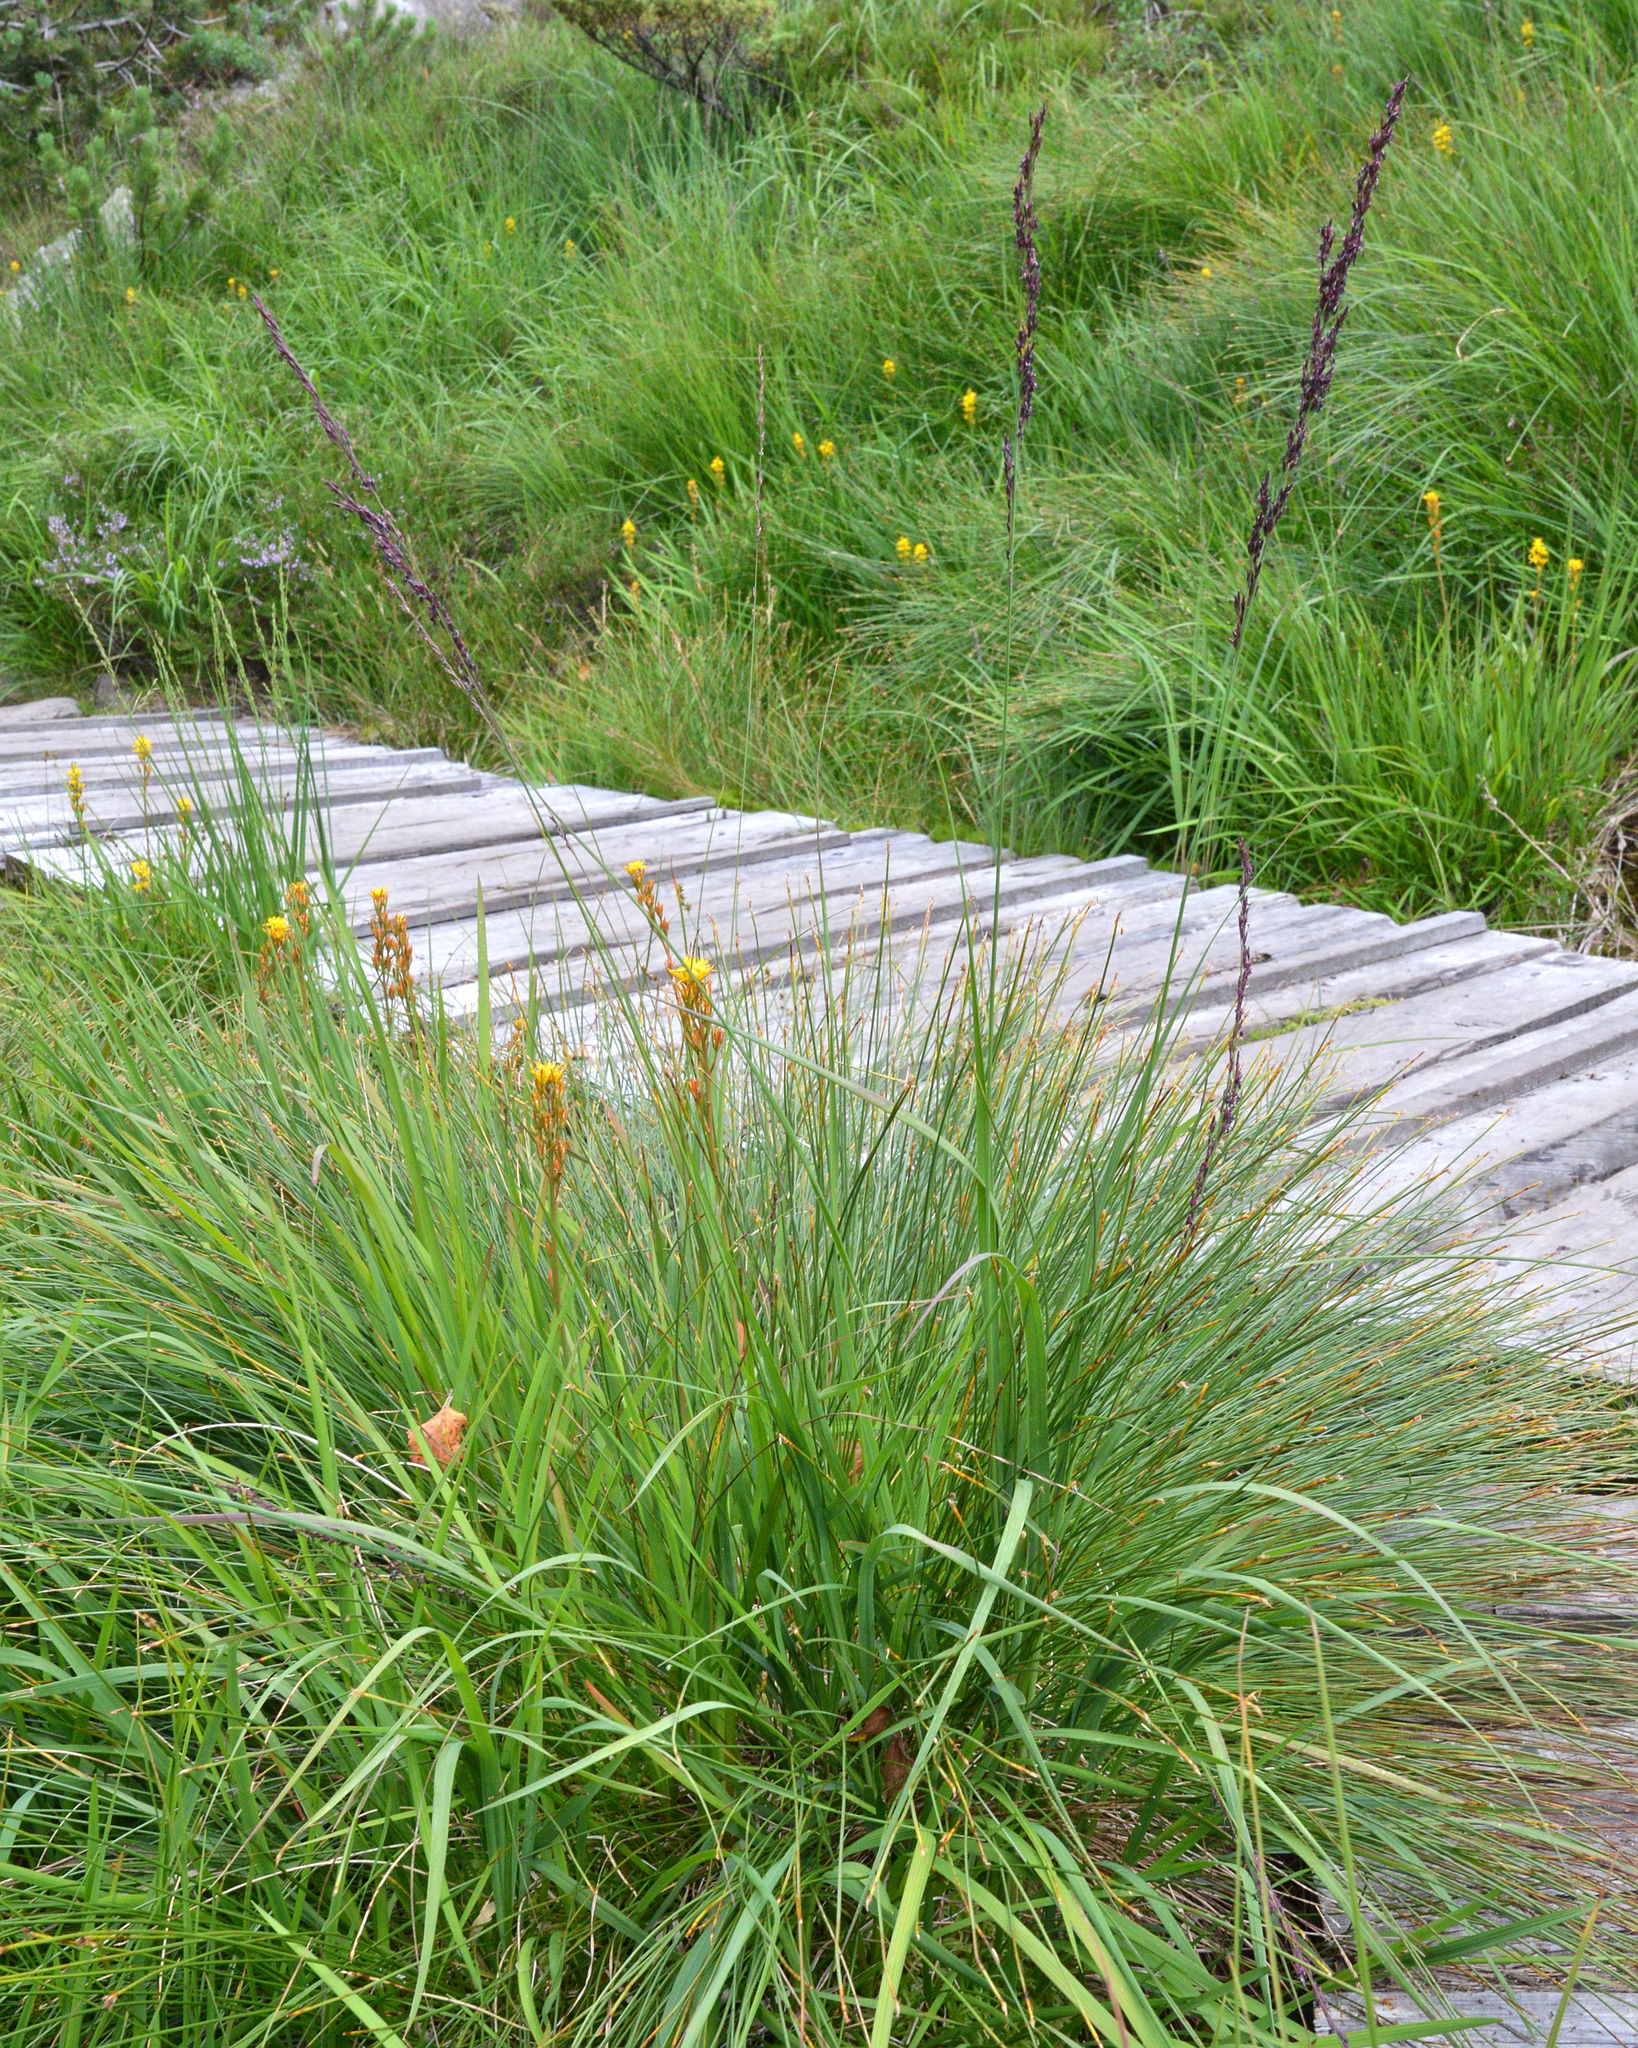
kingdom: Plantae
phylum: Tracheophyta
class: Liliopsida
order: Poales
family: Poaceae
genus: Molinia
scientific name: Molinia caerulea
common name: Purple moor-grass
